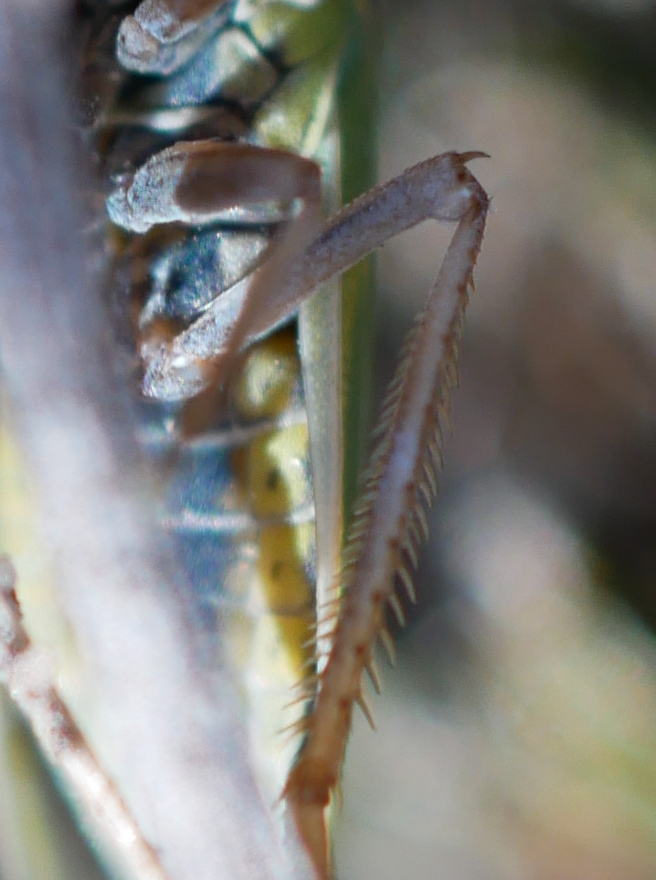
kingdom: Animalia
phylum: Arthropoda
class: Insecta
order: Hemiptera
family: Cicadellidae
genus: Helochara
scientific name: Helochara communis
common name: Bog leafhopper
